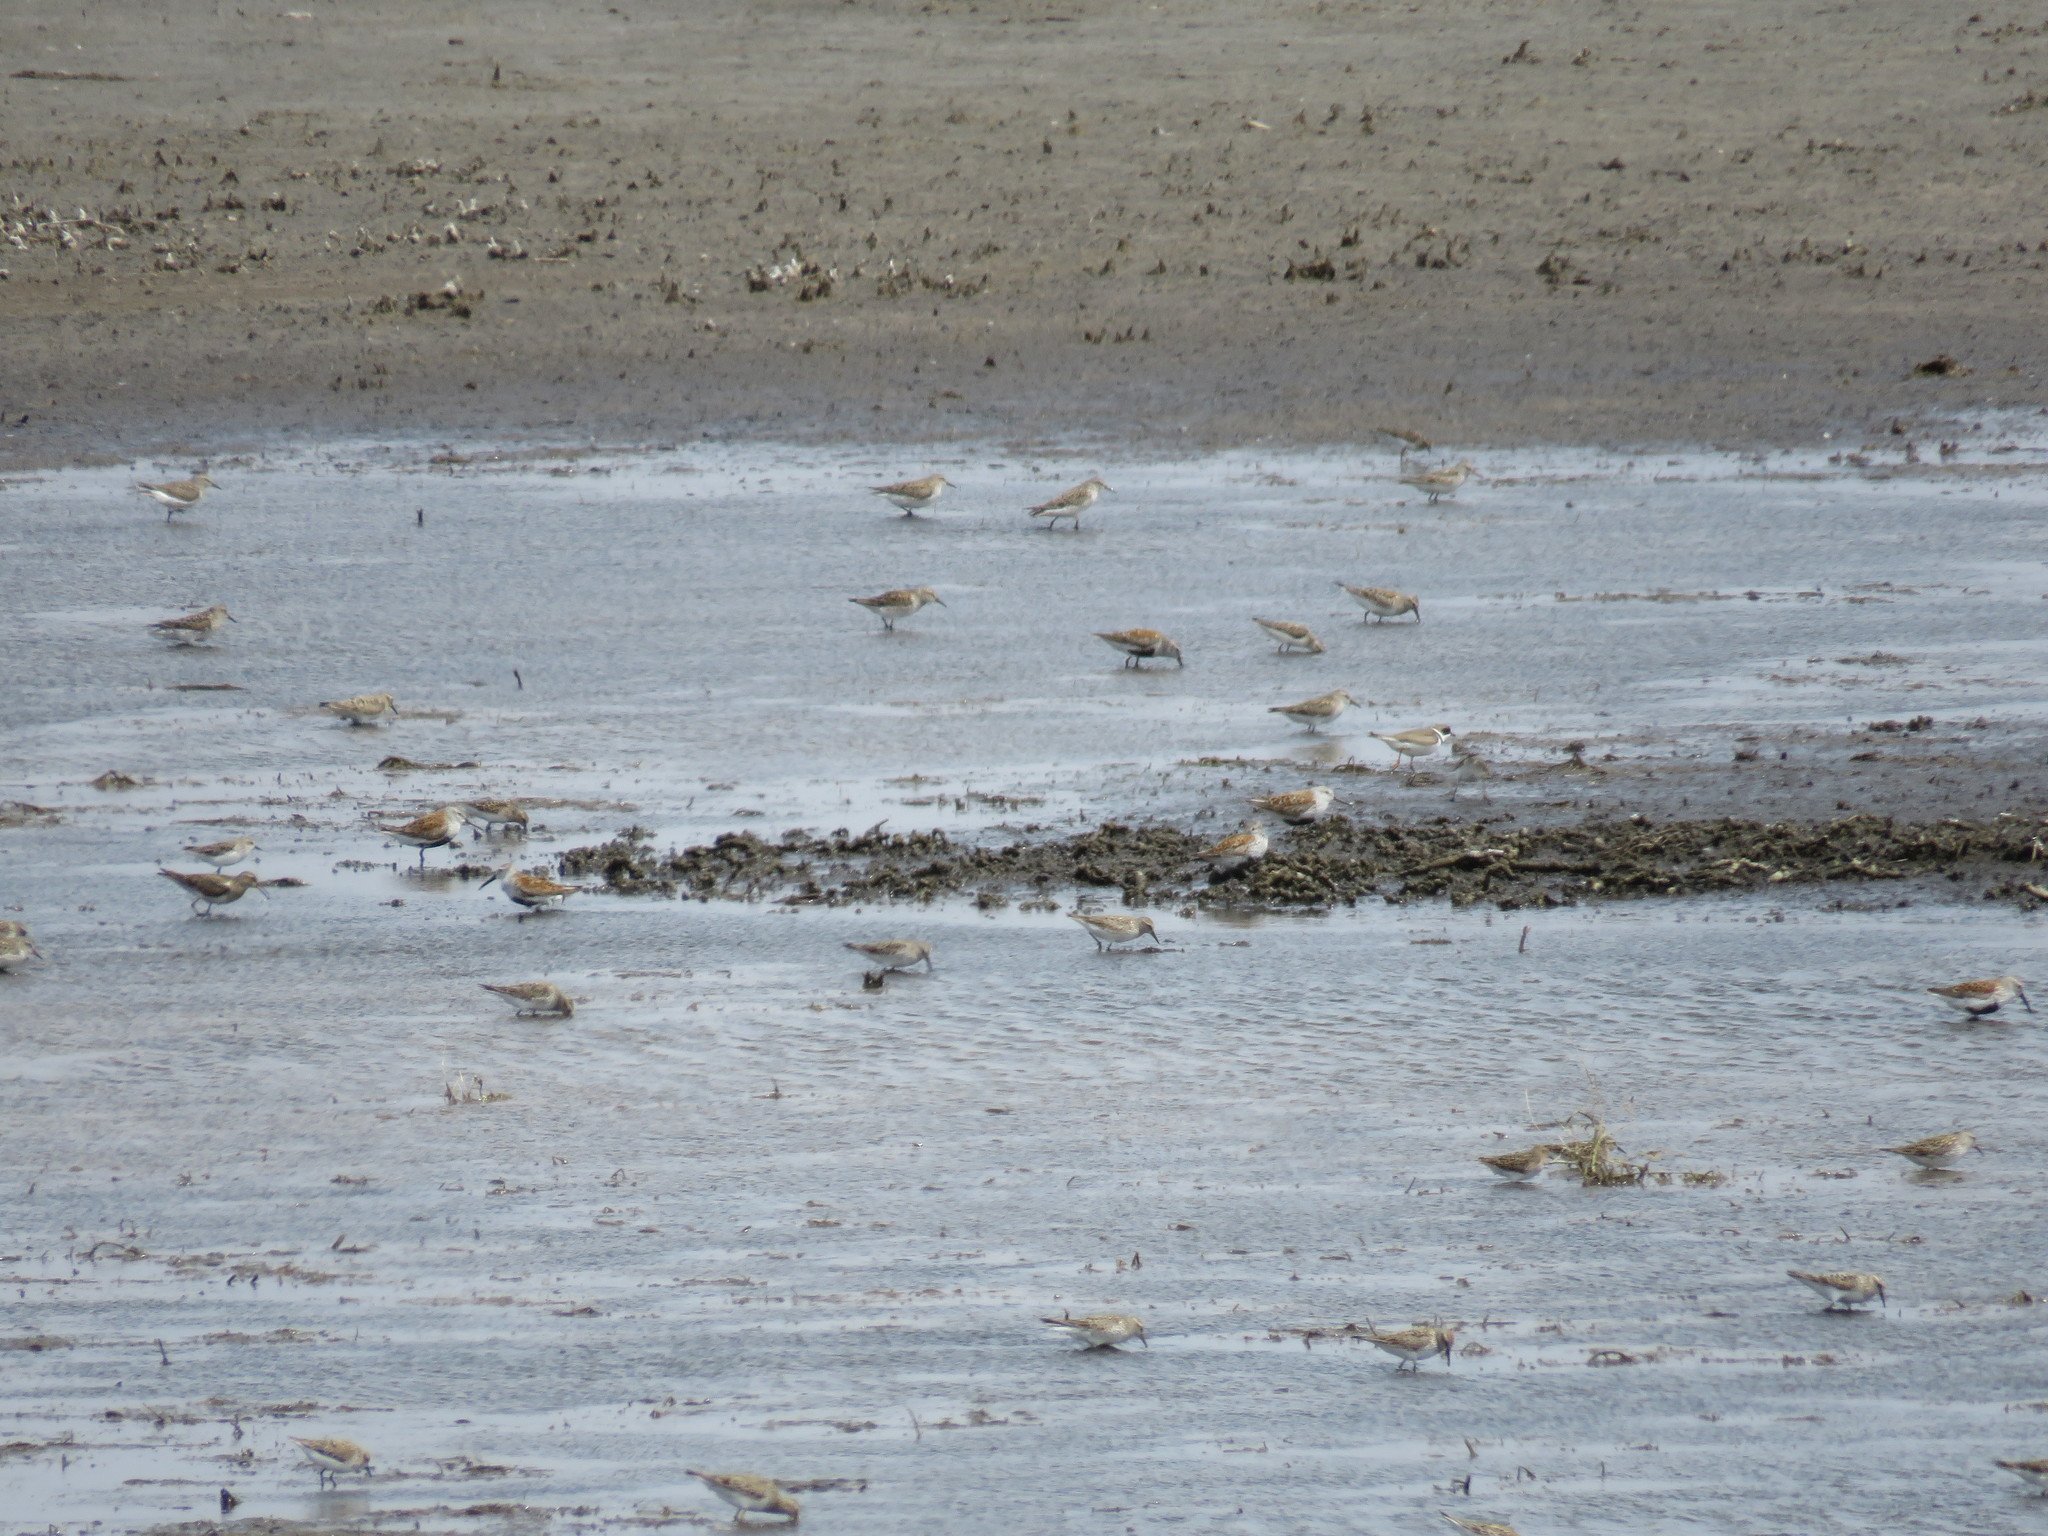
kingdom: Animalia
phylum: Chordata
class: Aves
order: Charadriiformes
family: Scolopacidae
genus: Calidris
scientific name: Calidris alpina
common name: Dunlin
